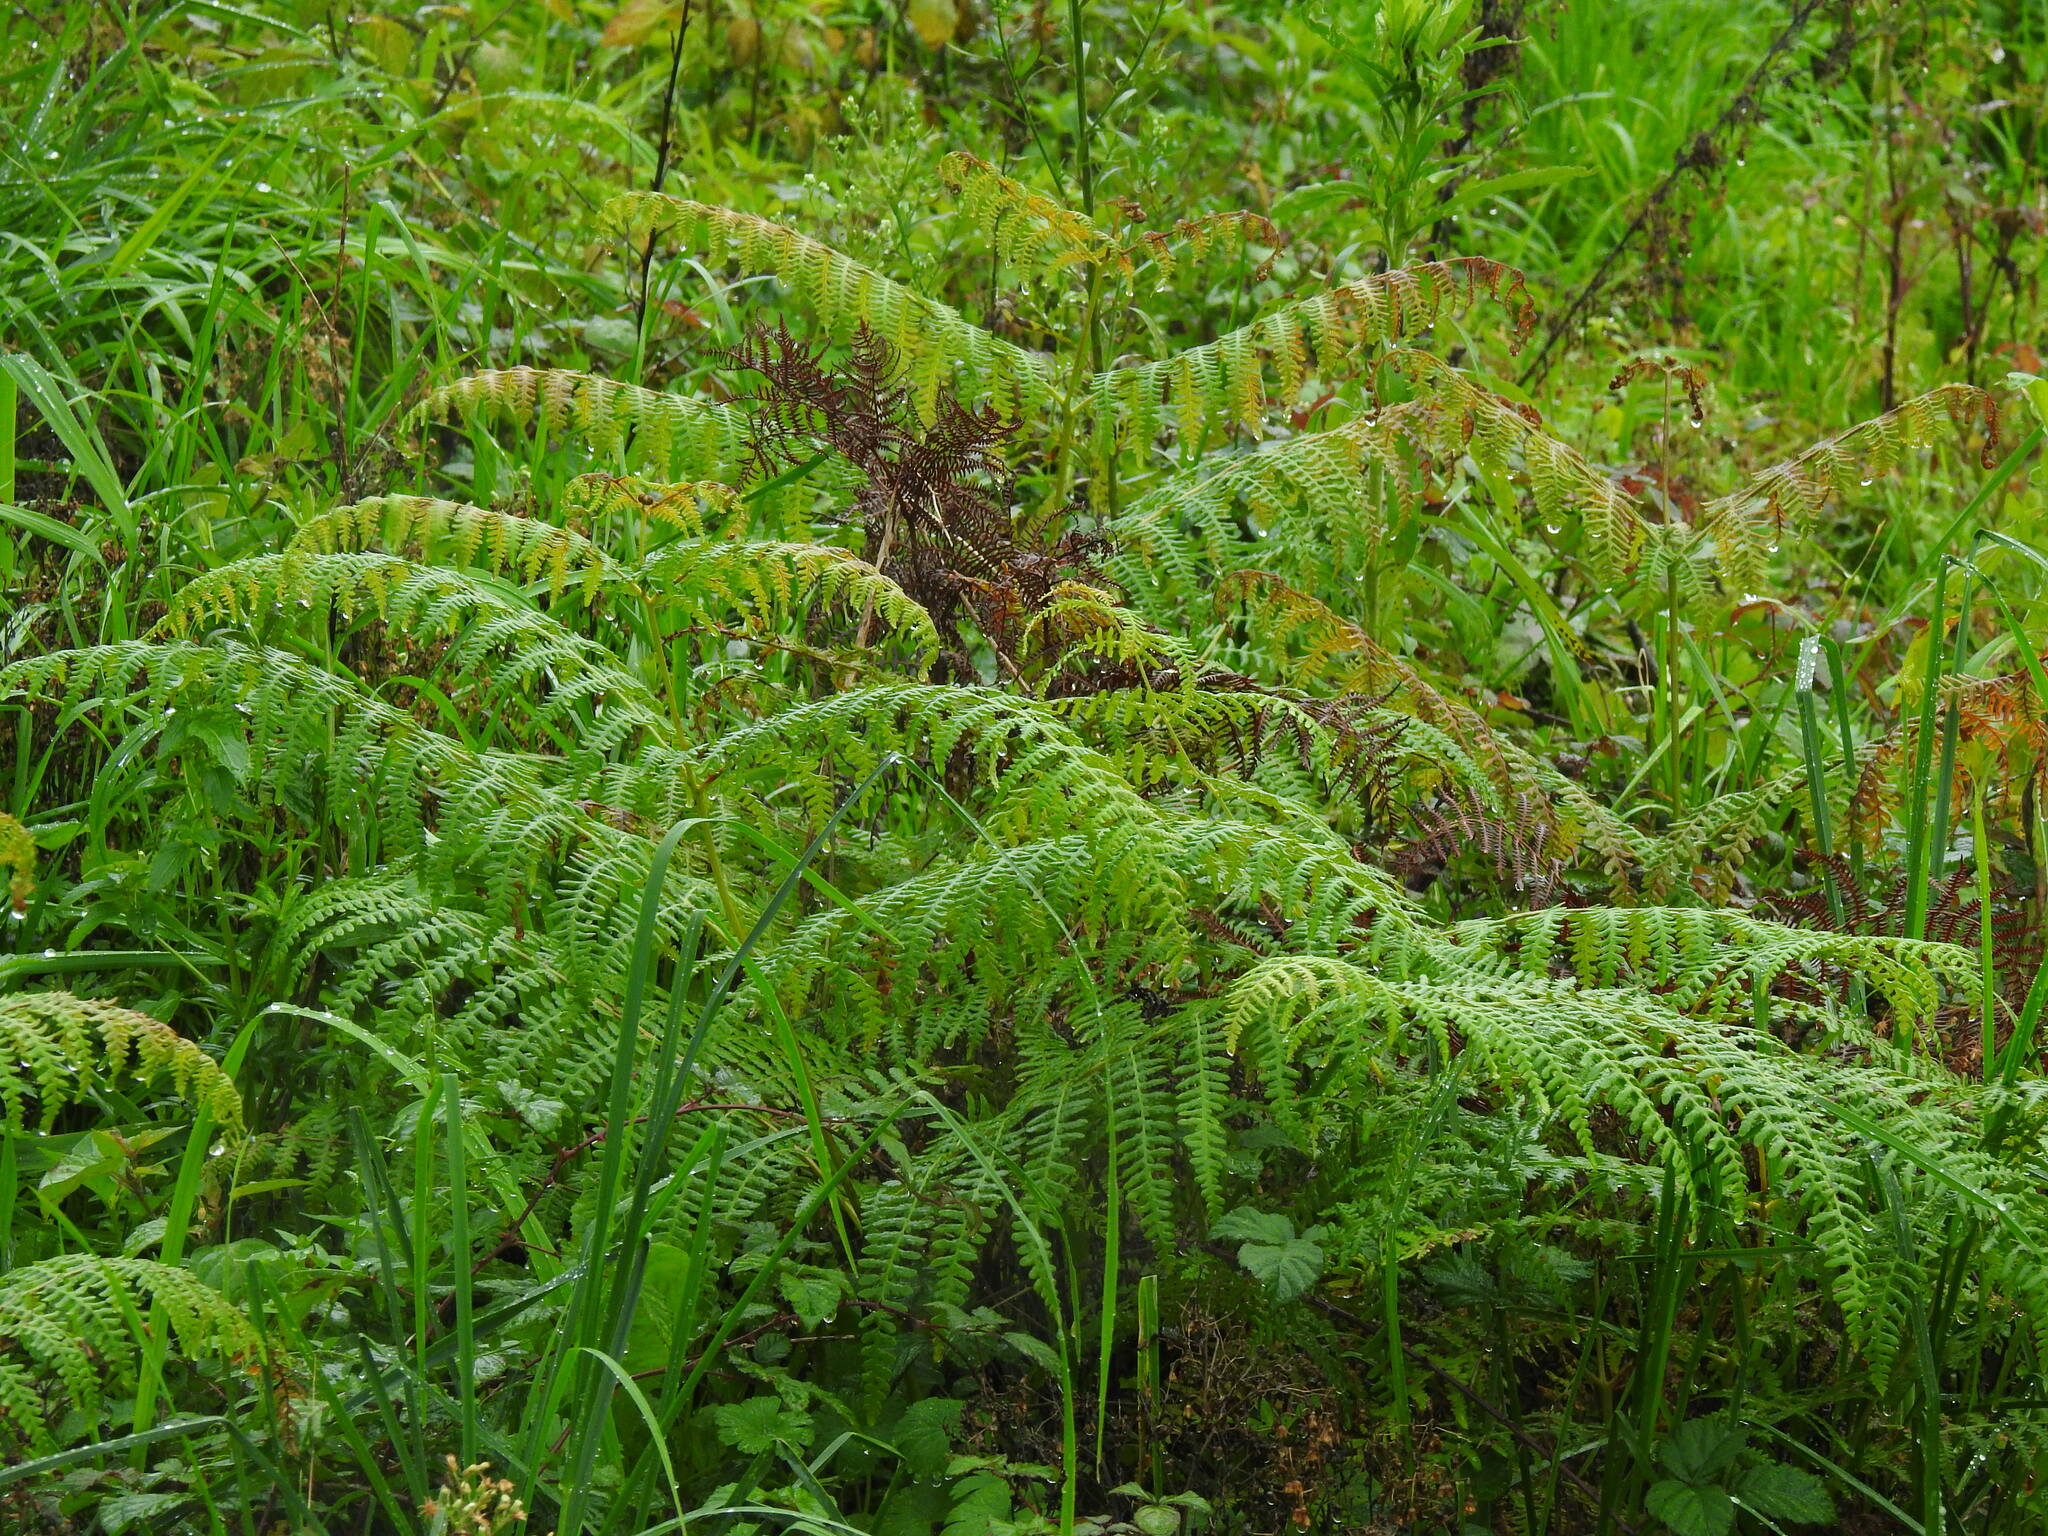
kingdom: Plantae
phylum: Tracheophyta
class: Polypodiopsida
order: Polypodiales
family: Dennstaedtiaceae
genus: Pteridium
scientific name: Pteridium aquilinum
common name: Bracken
